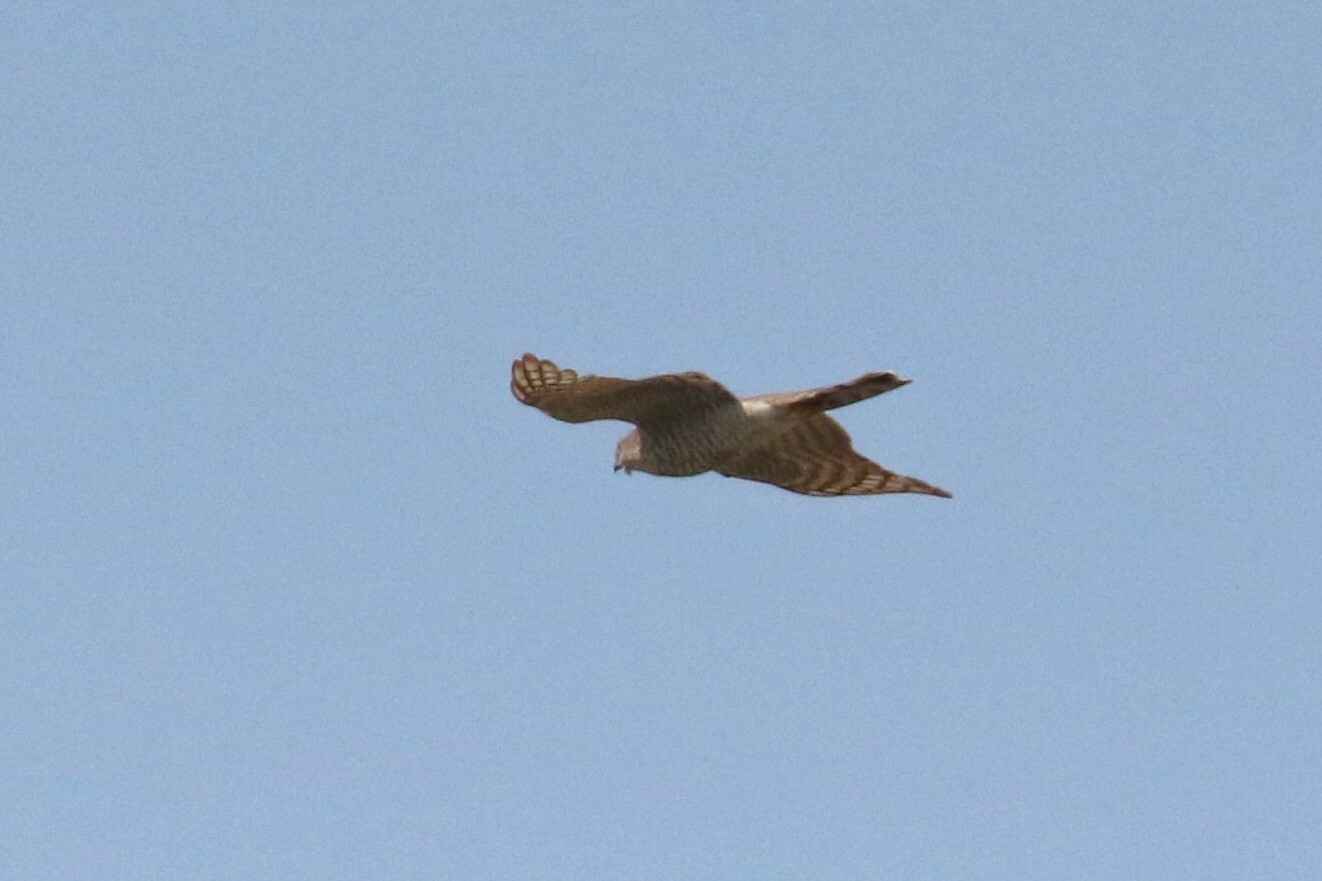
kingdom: Animalia
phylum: Chordata
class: Aves
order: Accipitriformes
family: Accipitridae
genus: Accipiter
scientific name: Accipiter nisus
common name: Eurasian sparrowhawk
